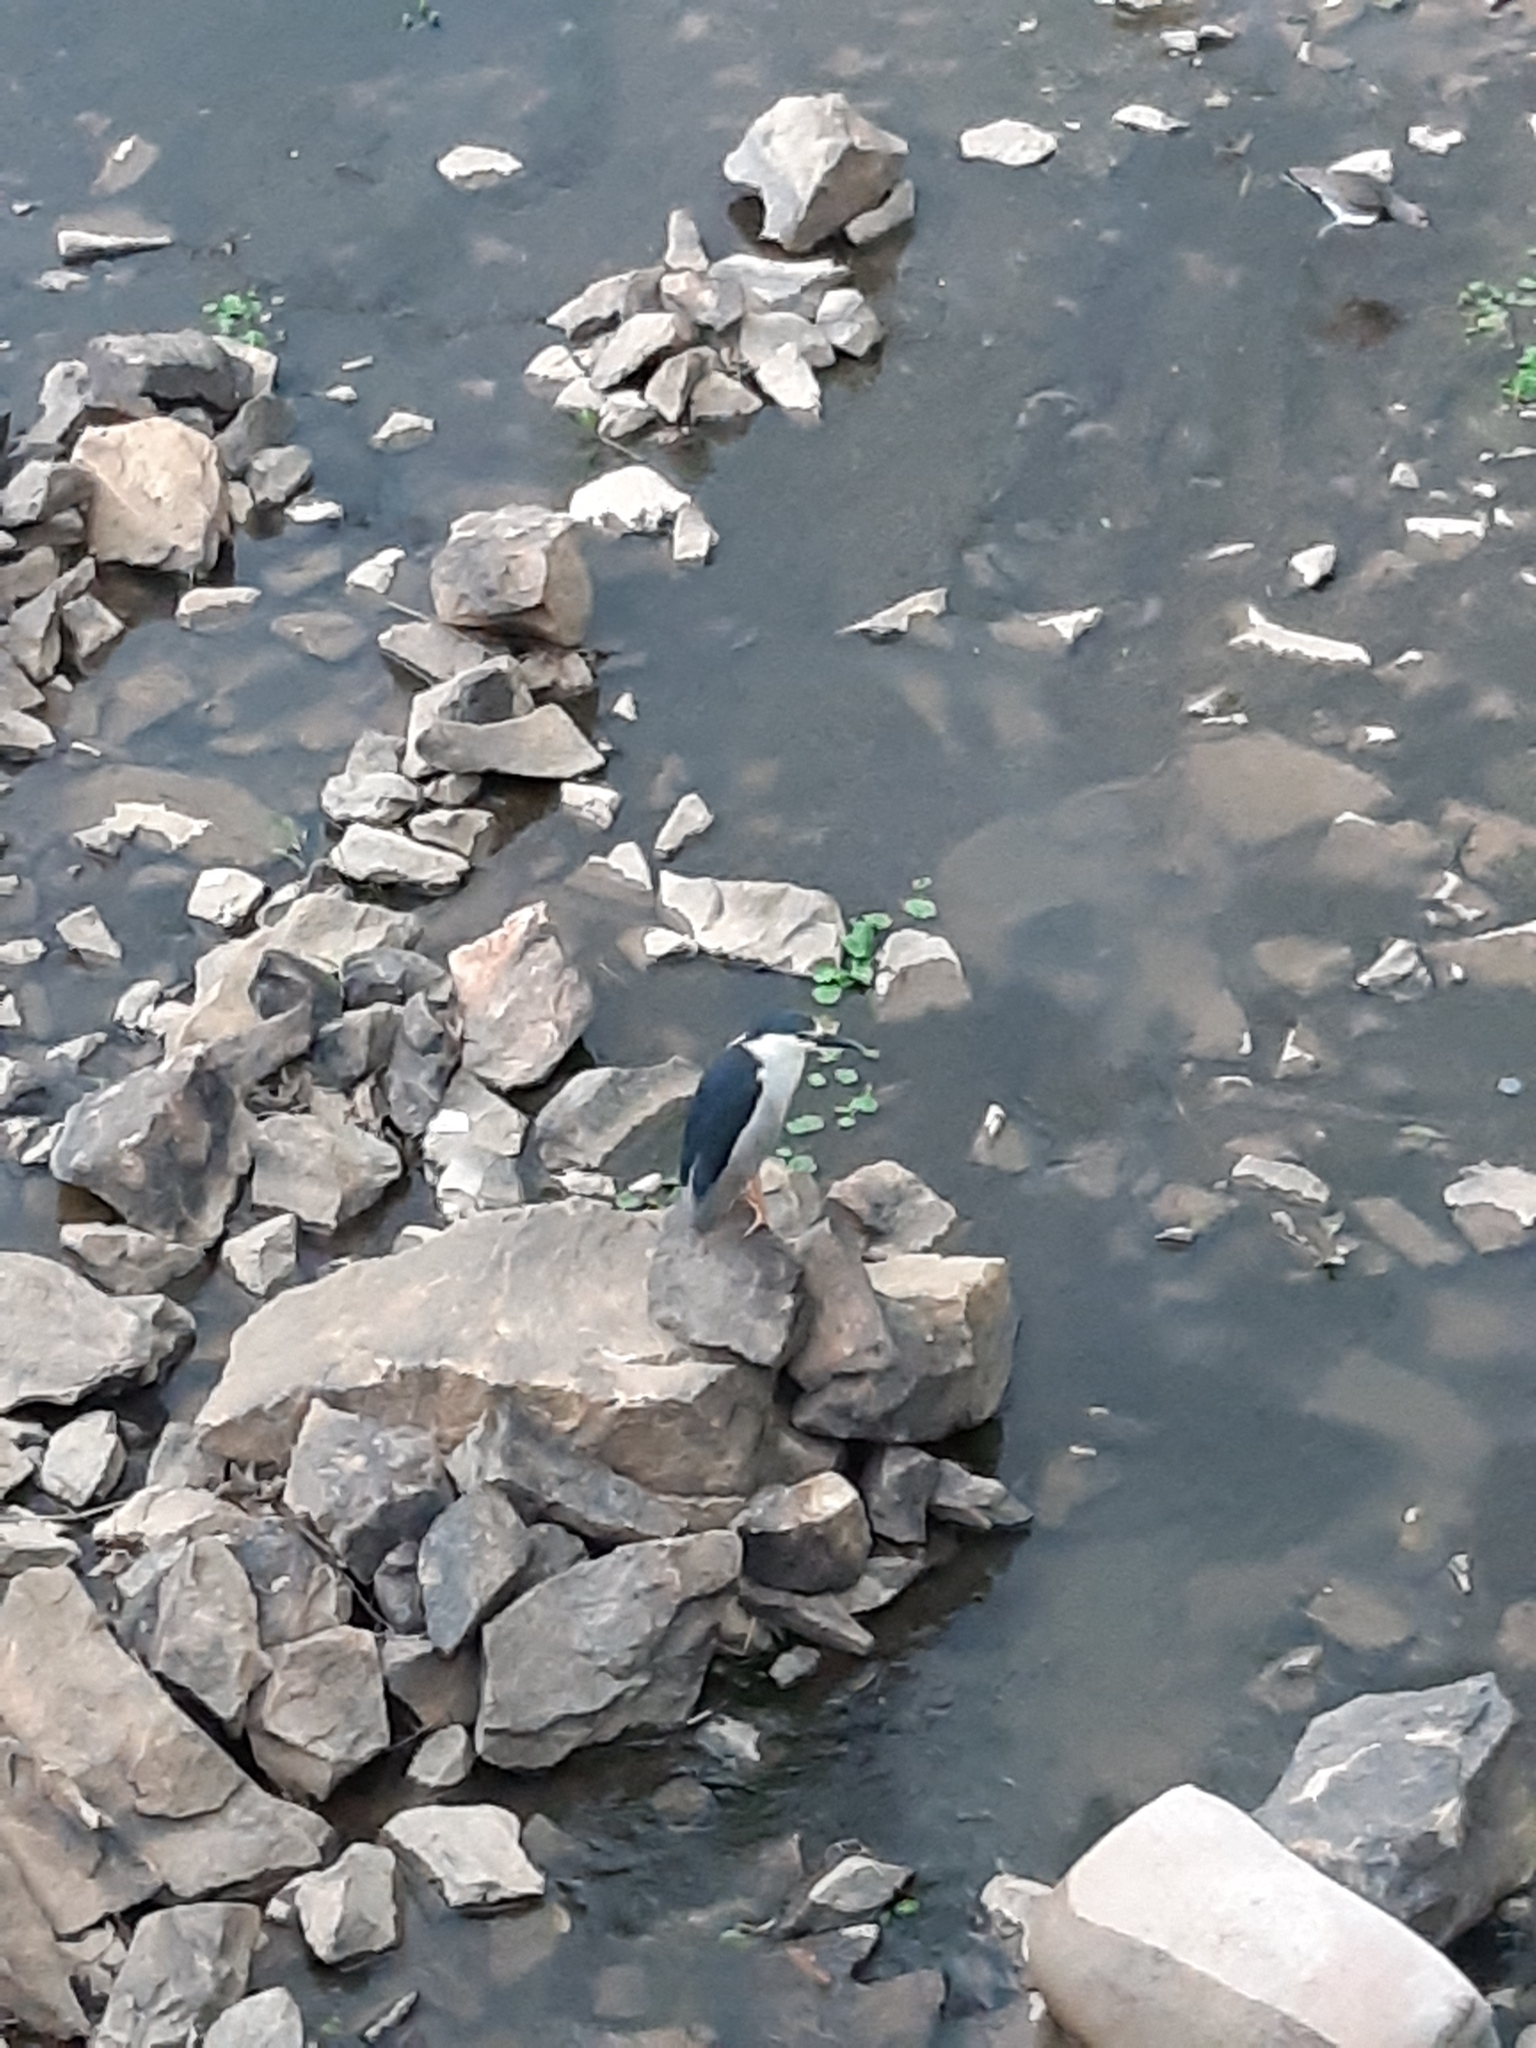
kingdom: Animalia
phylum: Chordata
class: Aves
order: Pelecaniformes
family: Ardeidae
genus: Nycticorax
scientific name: Nycticorax nycticorax
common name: Black-crowned night heron
